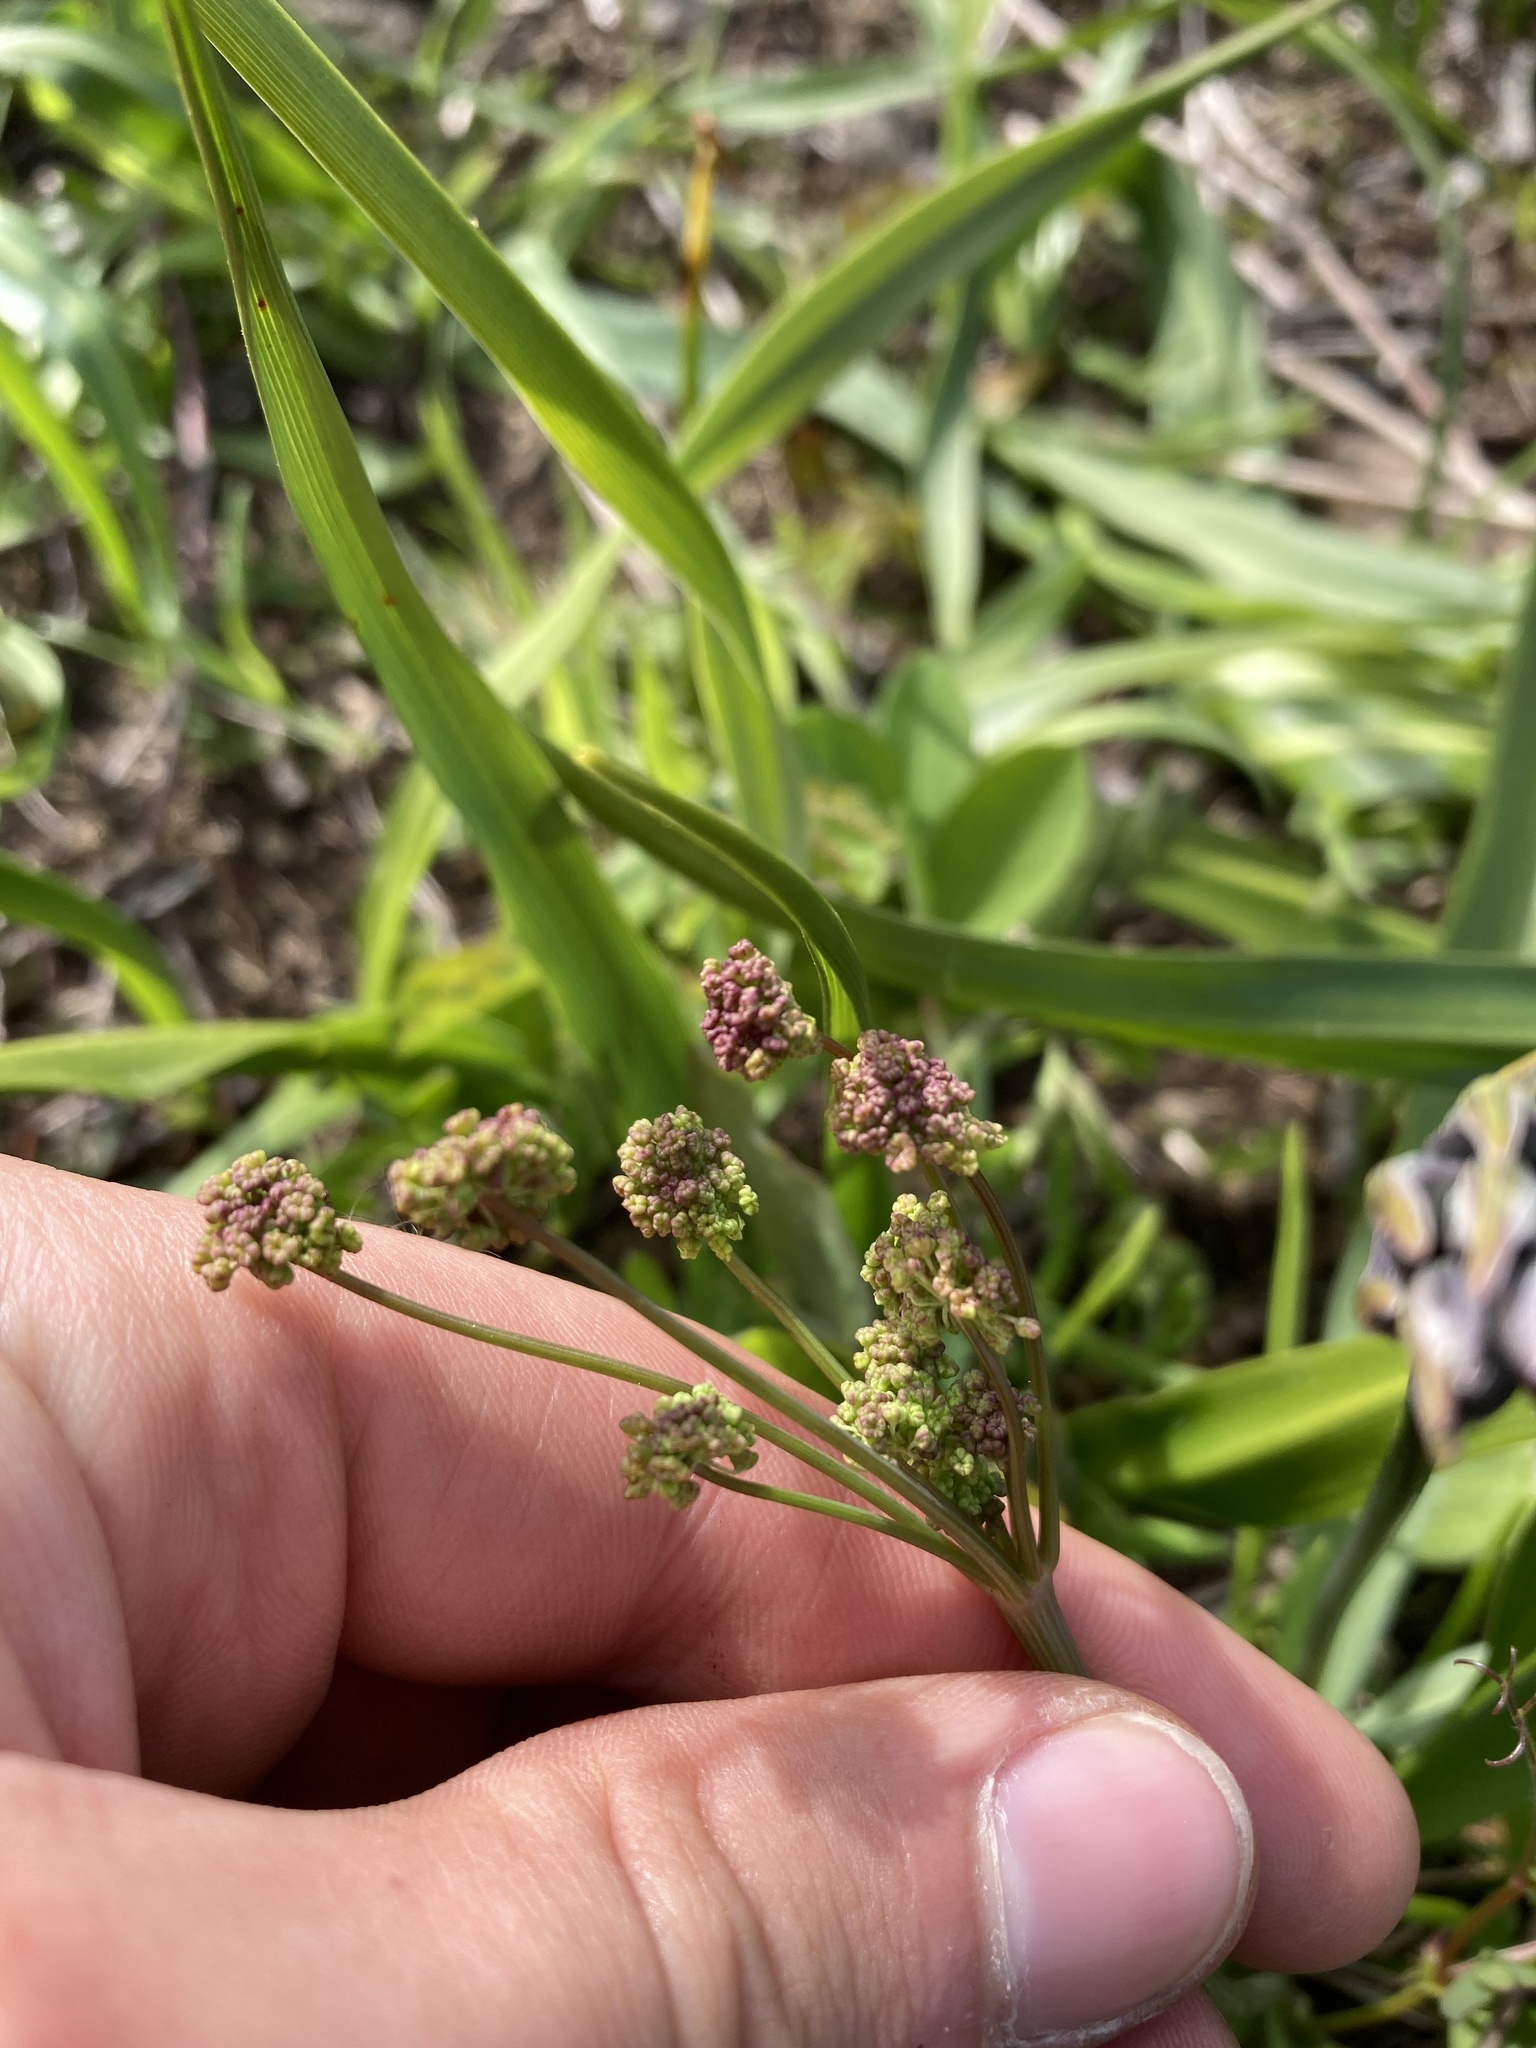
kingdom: Plantae
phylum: Tracheophyta
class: Magnoliopsida
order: Apiales
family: Apiaceae
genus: Lomatium
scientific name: Lomatium nudicaule
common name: Pestle lomatium
